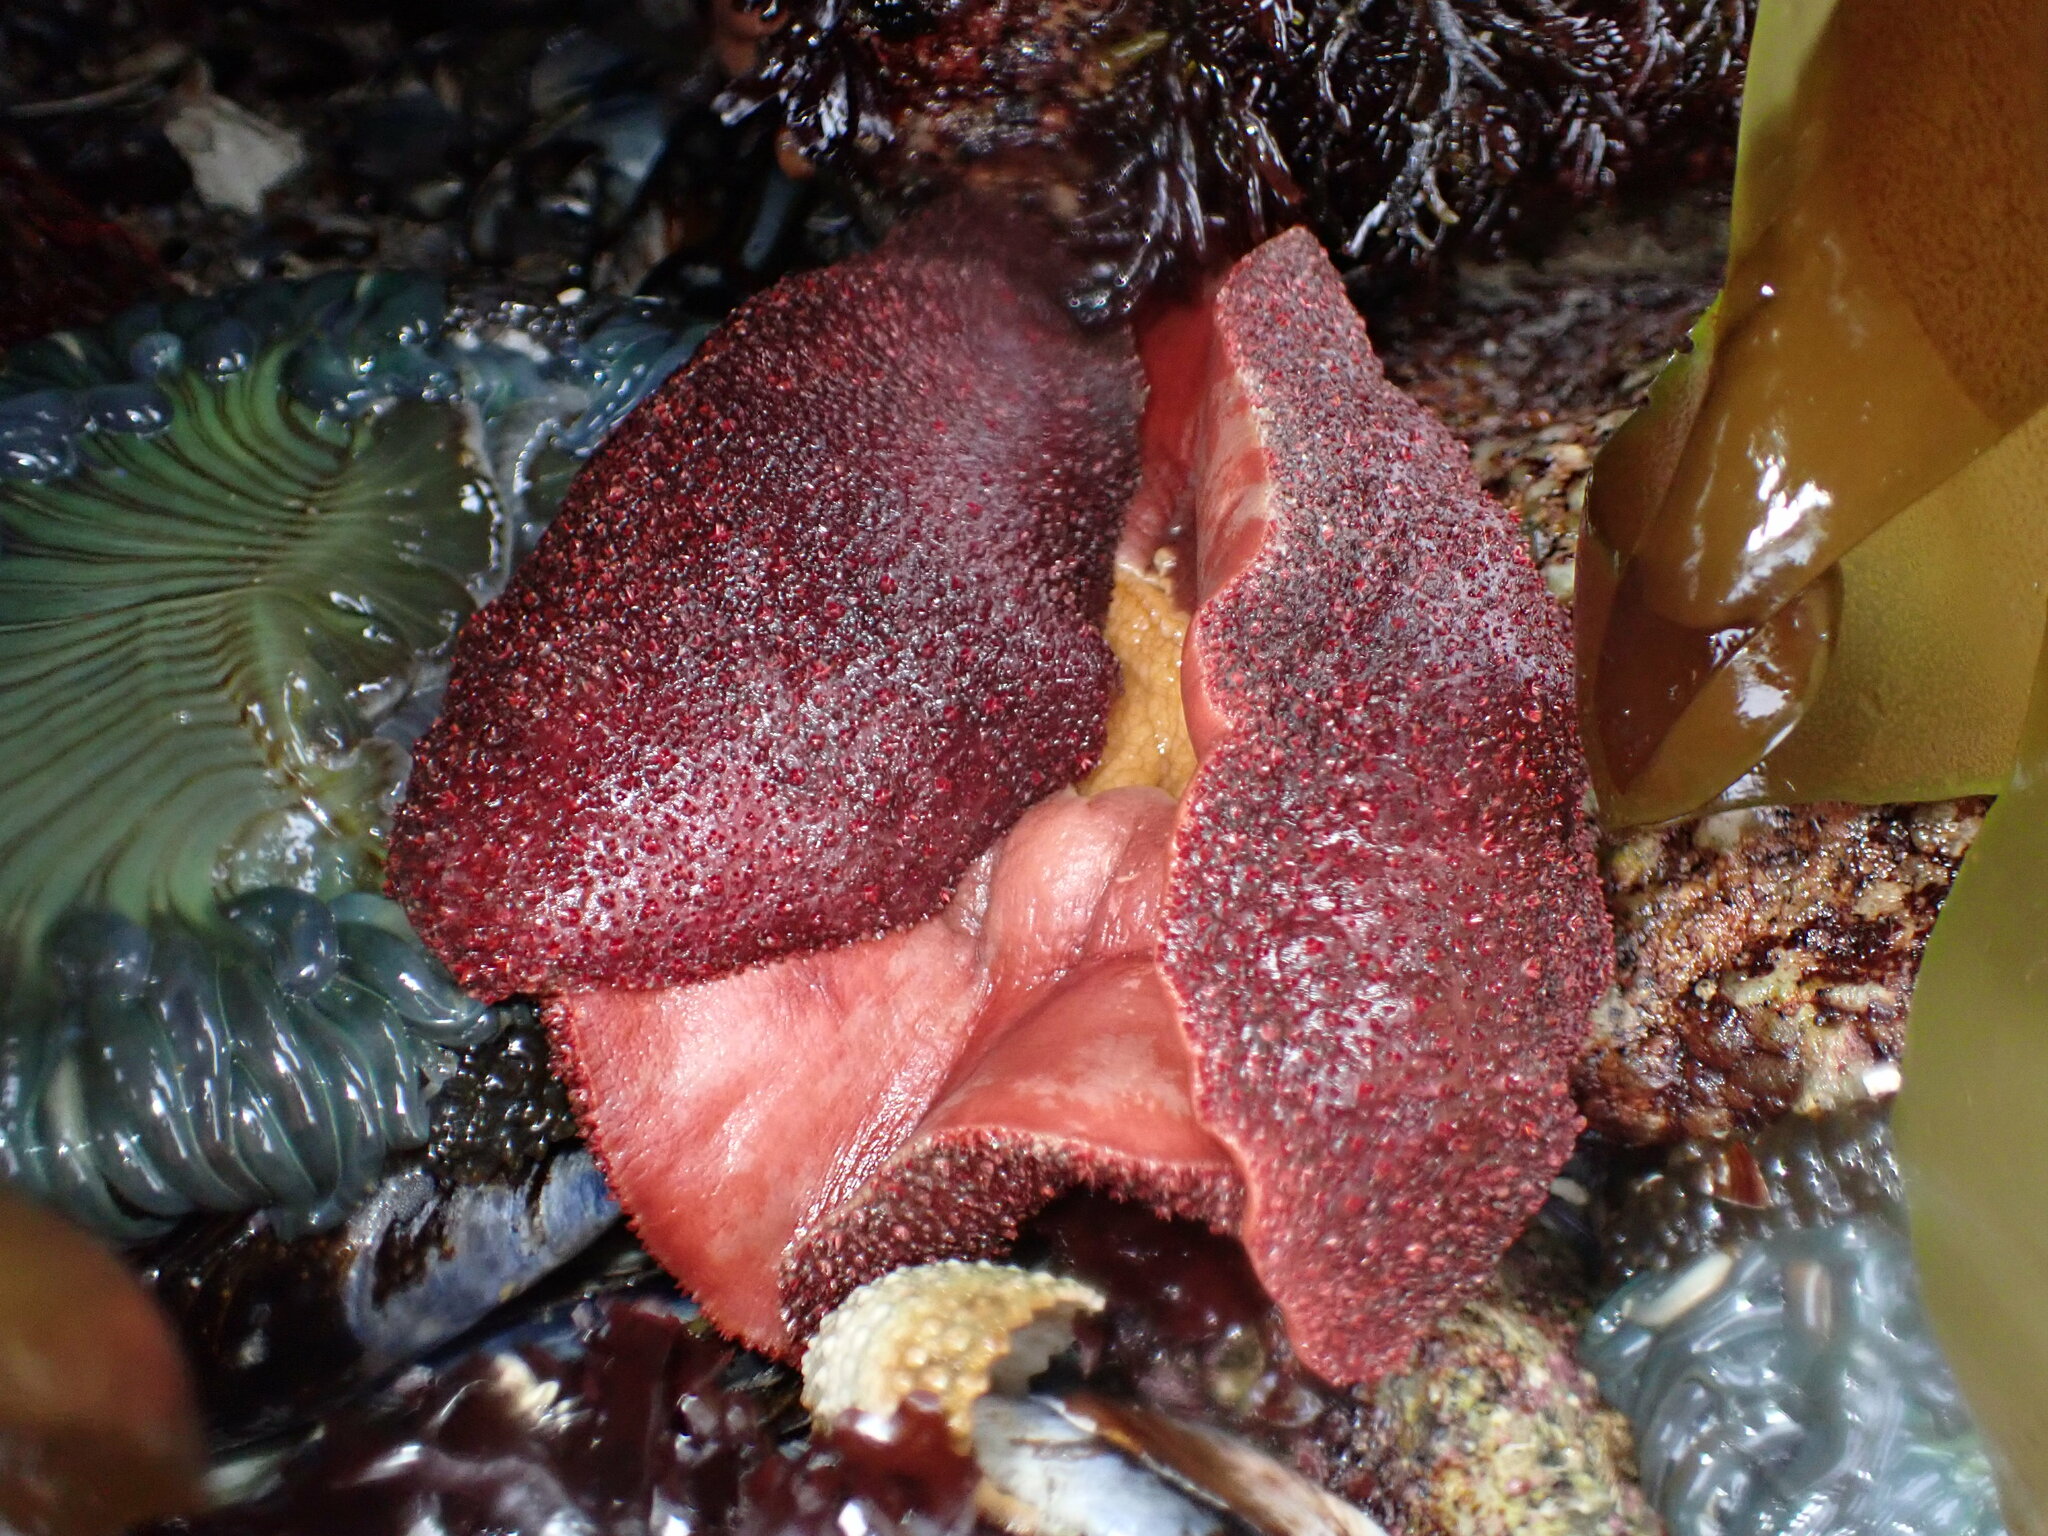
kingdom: Animalia
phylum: Mollusca
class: Polyplacophora
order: Chitonida
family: Acanthochitonidae
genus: Cryptochiton
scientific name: Cryptochiton stelleri
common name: Giant pacific chiton
